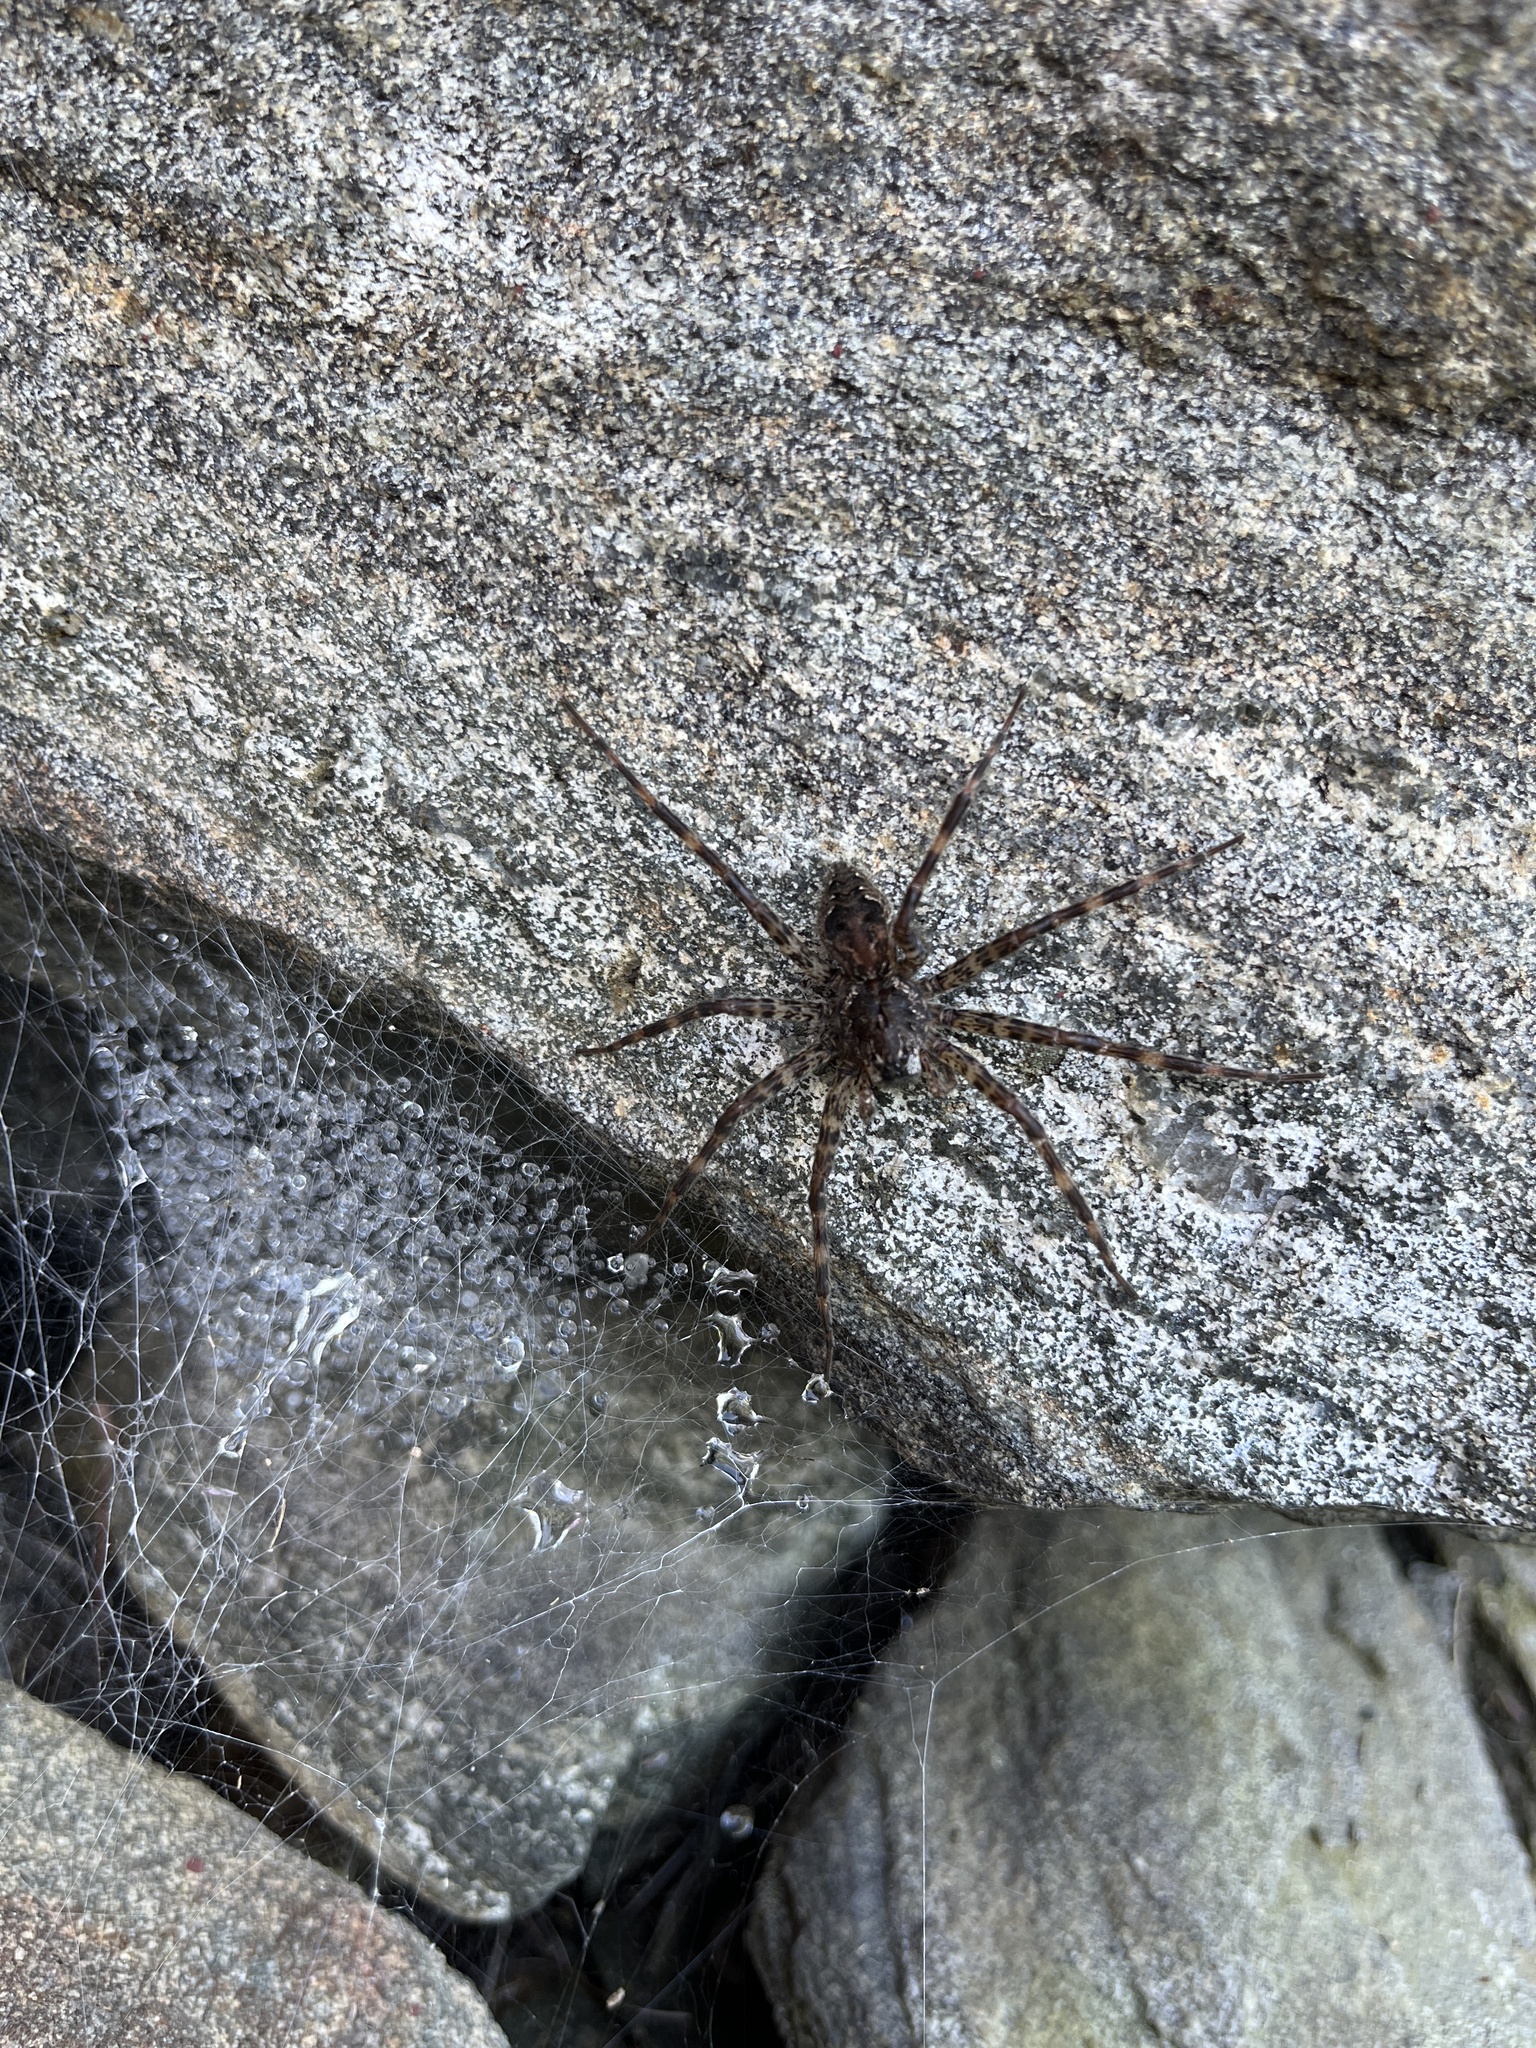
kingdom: Animalia
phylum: Arthropoda
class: Arachnida
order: Araneae
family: Pisauridae
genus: Dolomedes
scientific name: Dolomedes tenebrosus
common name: Dark fishing spider
